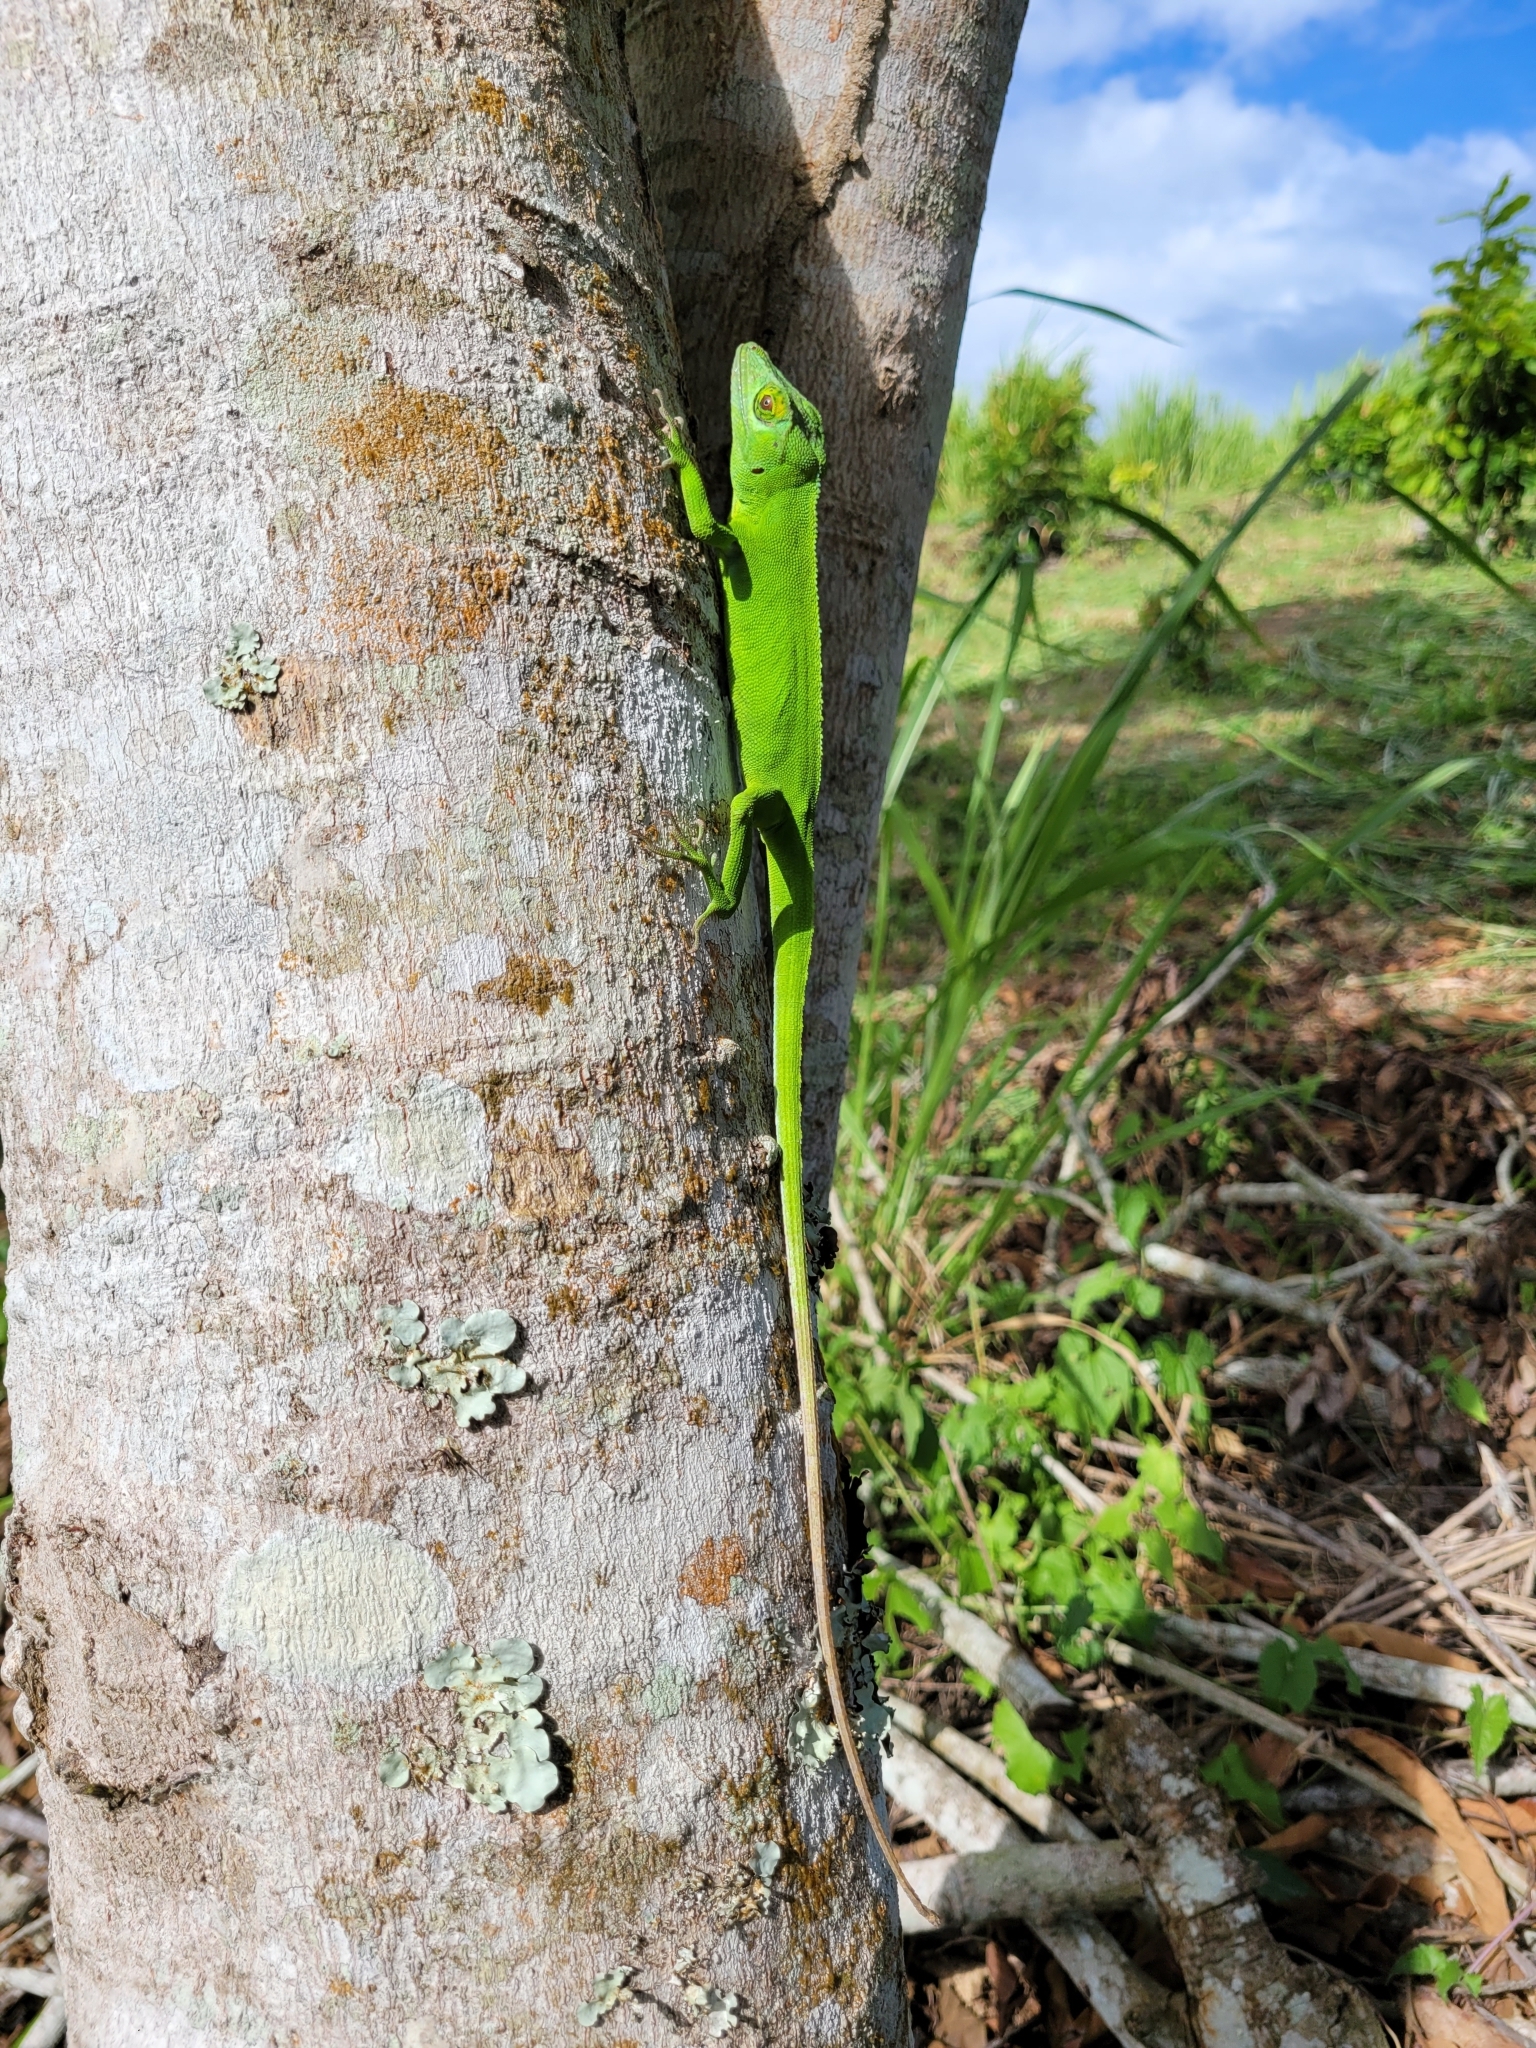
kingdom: Animalia
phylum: Chordata
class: Squamata
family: Dactyloidae
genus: Anolis
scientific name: Anolis cuvieri
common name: Cuvier's anole
